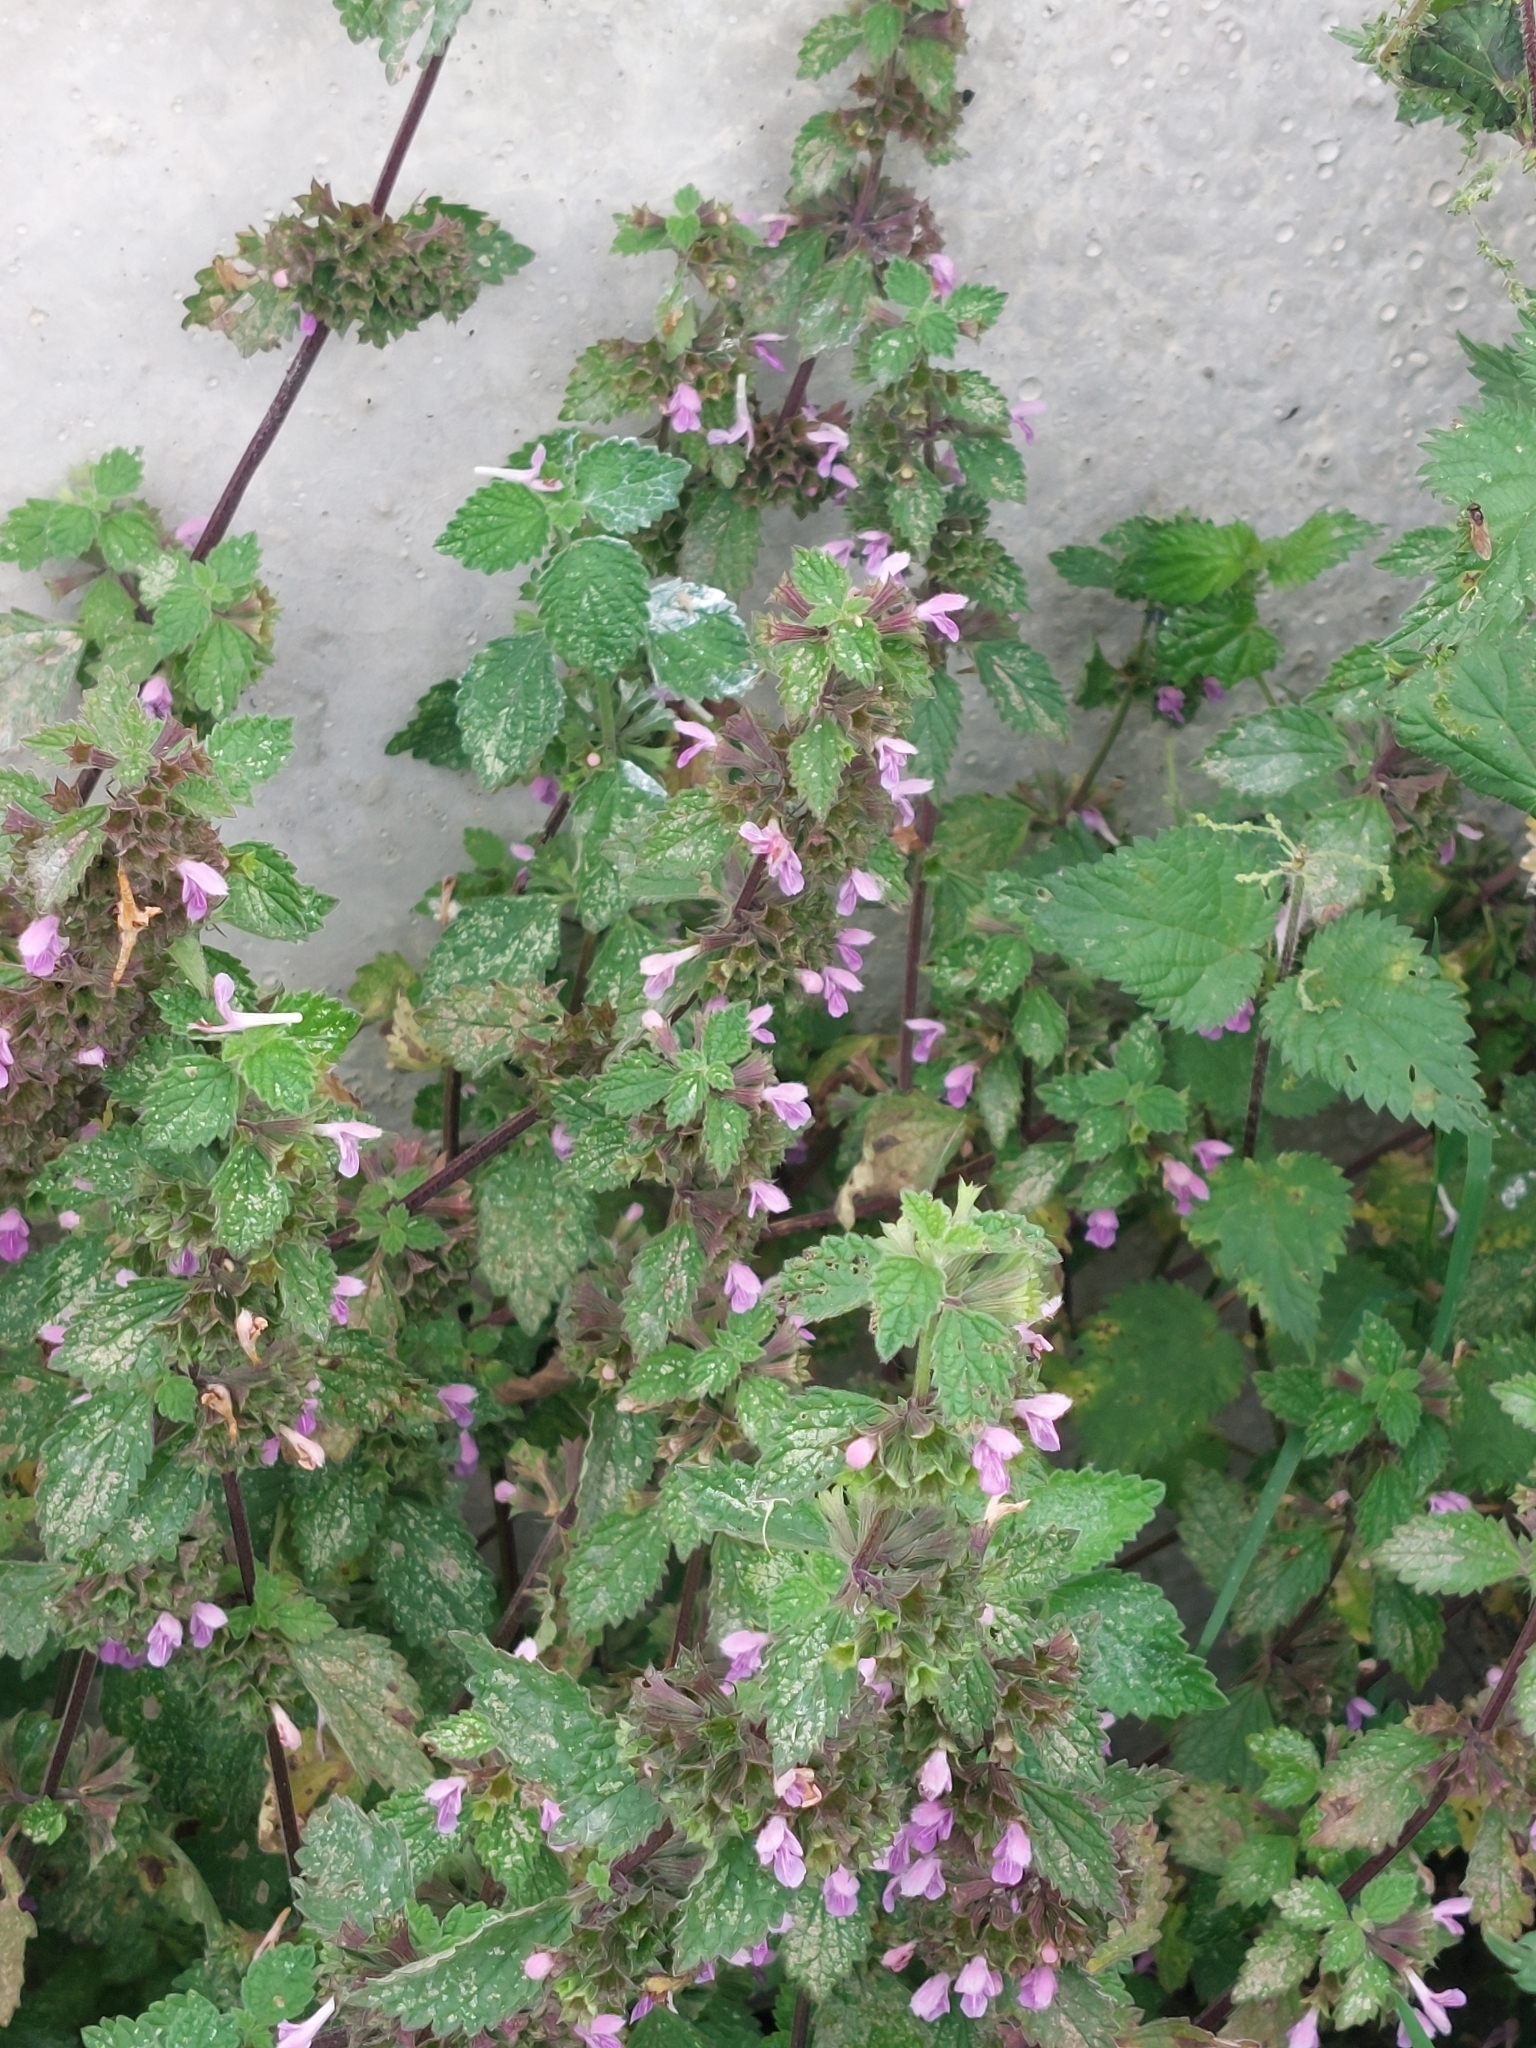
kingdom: Plantae
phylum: Tracheophyta
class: Magnoliopsida
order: Lamiales
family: Lamiaceae
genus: Ballota
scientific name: Ballota nigra
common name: Black horehound
